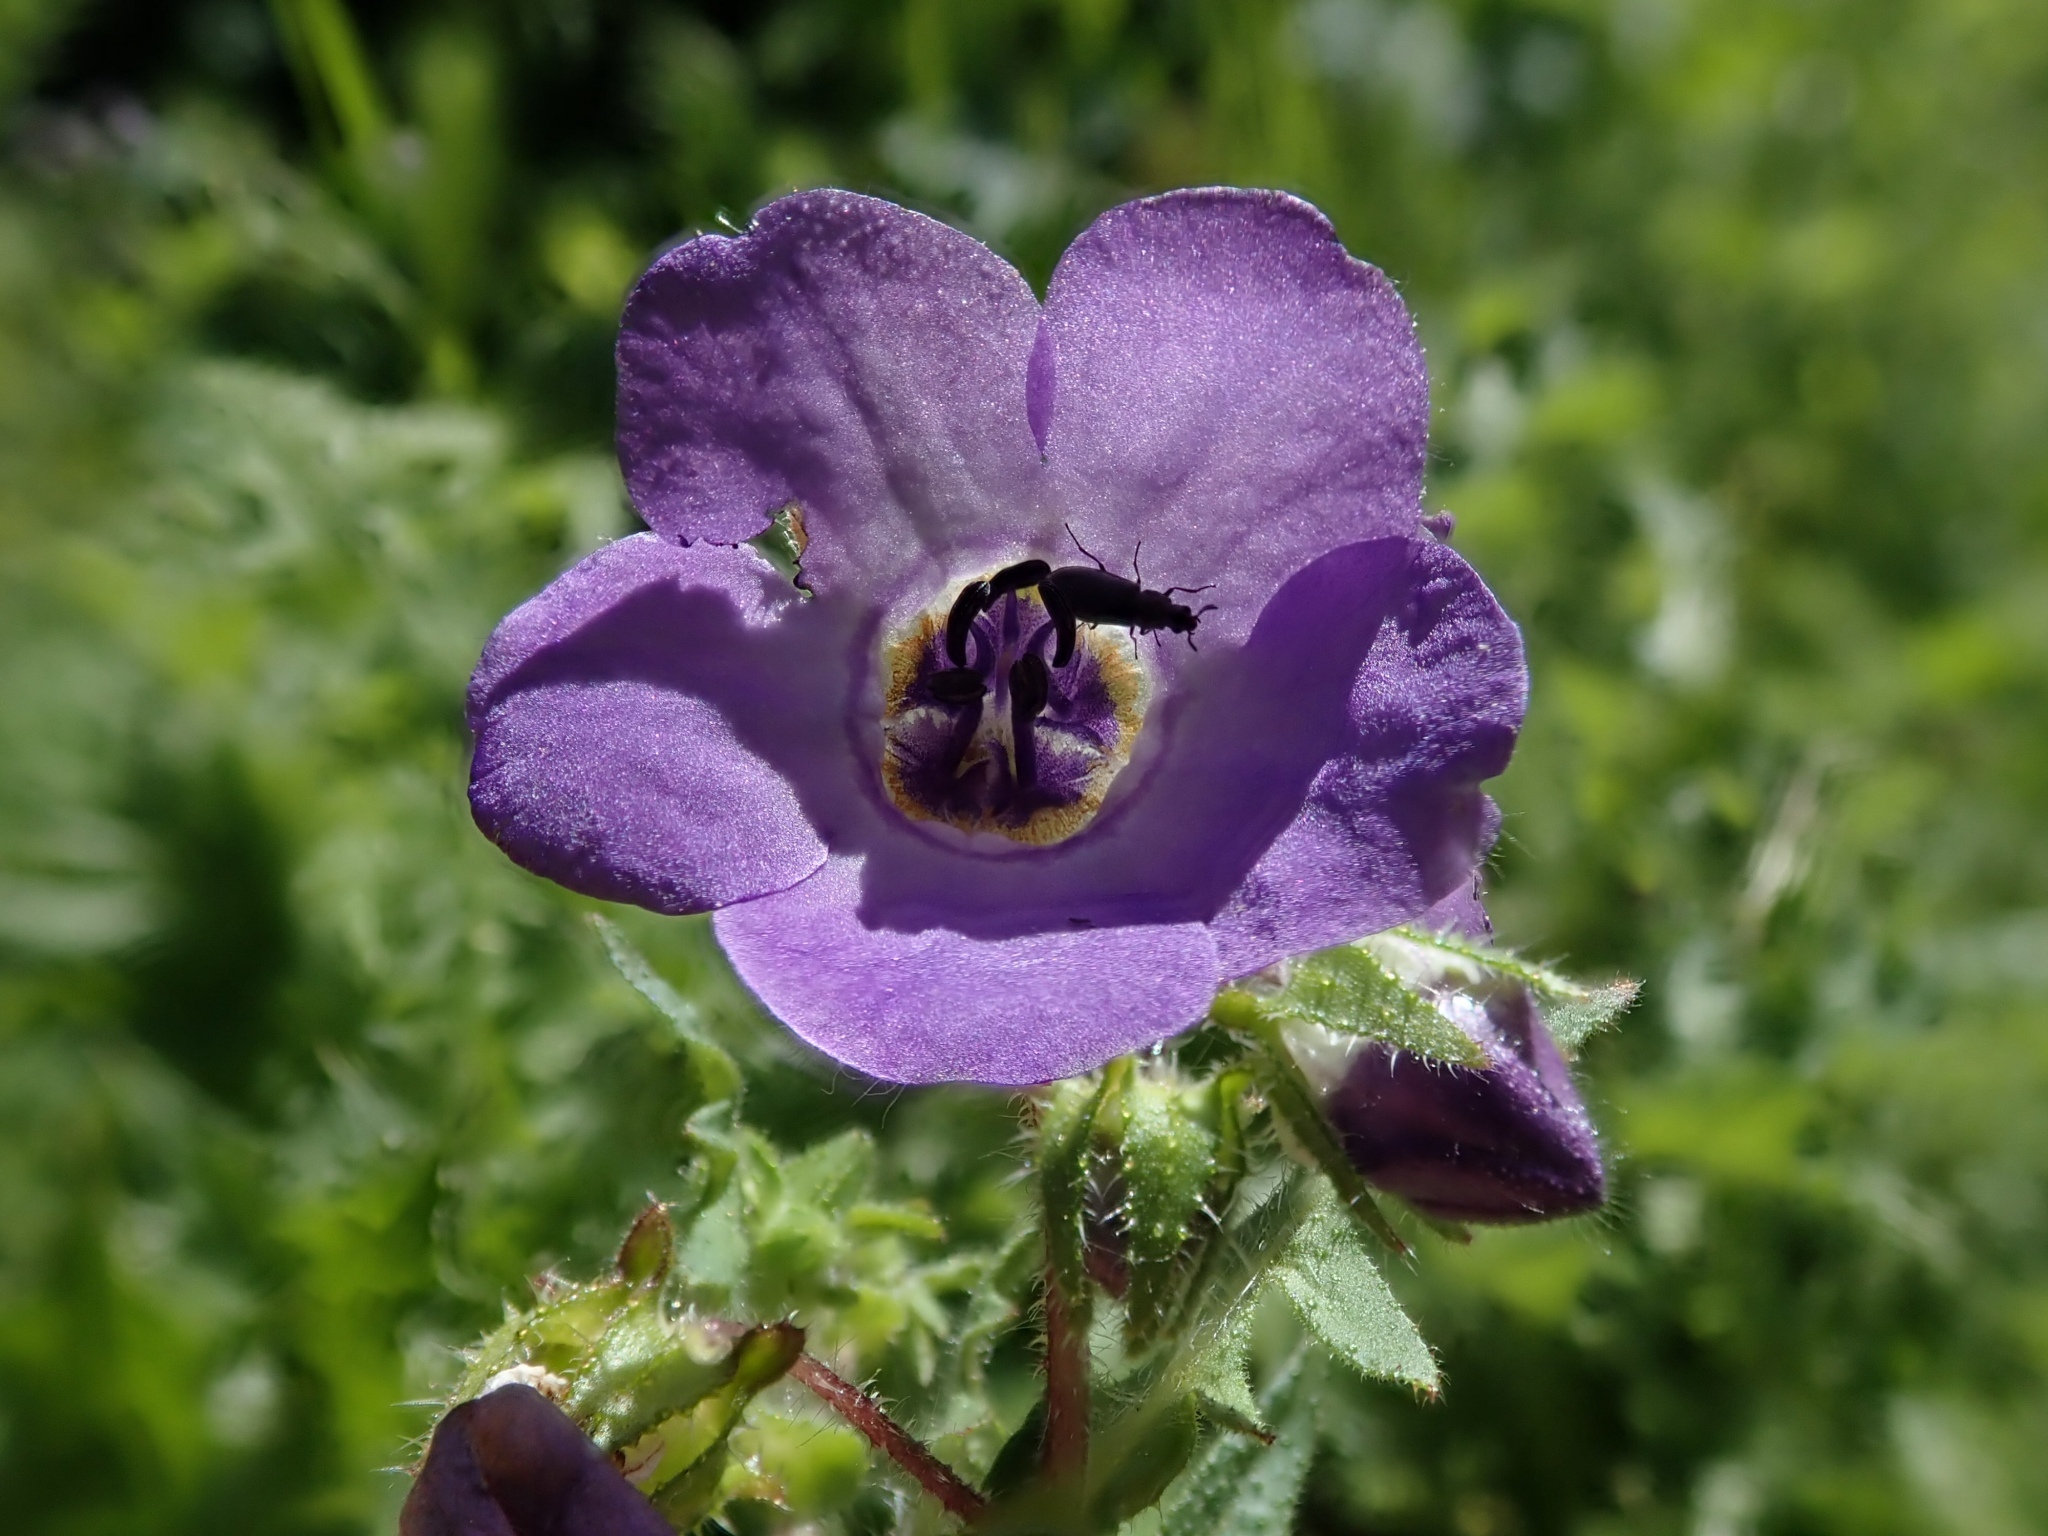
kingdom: Plantae
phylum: Tracheophyta
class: Magnoliopsida
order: Boraginales
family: Hydrophyllaceae
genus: Pholistoma
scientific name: Pholistoma auritum
